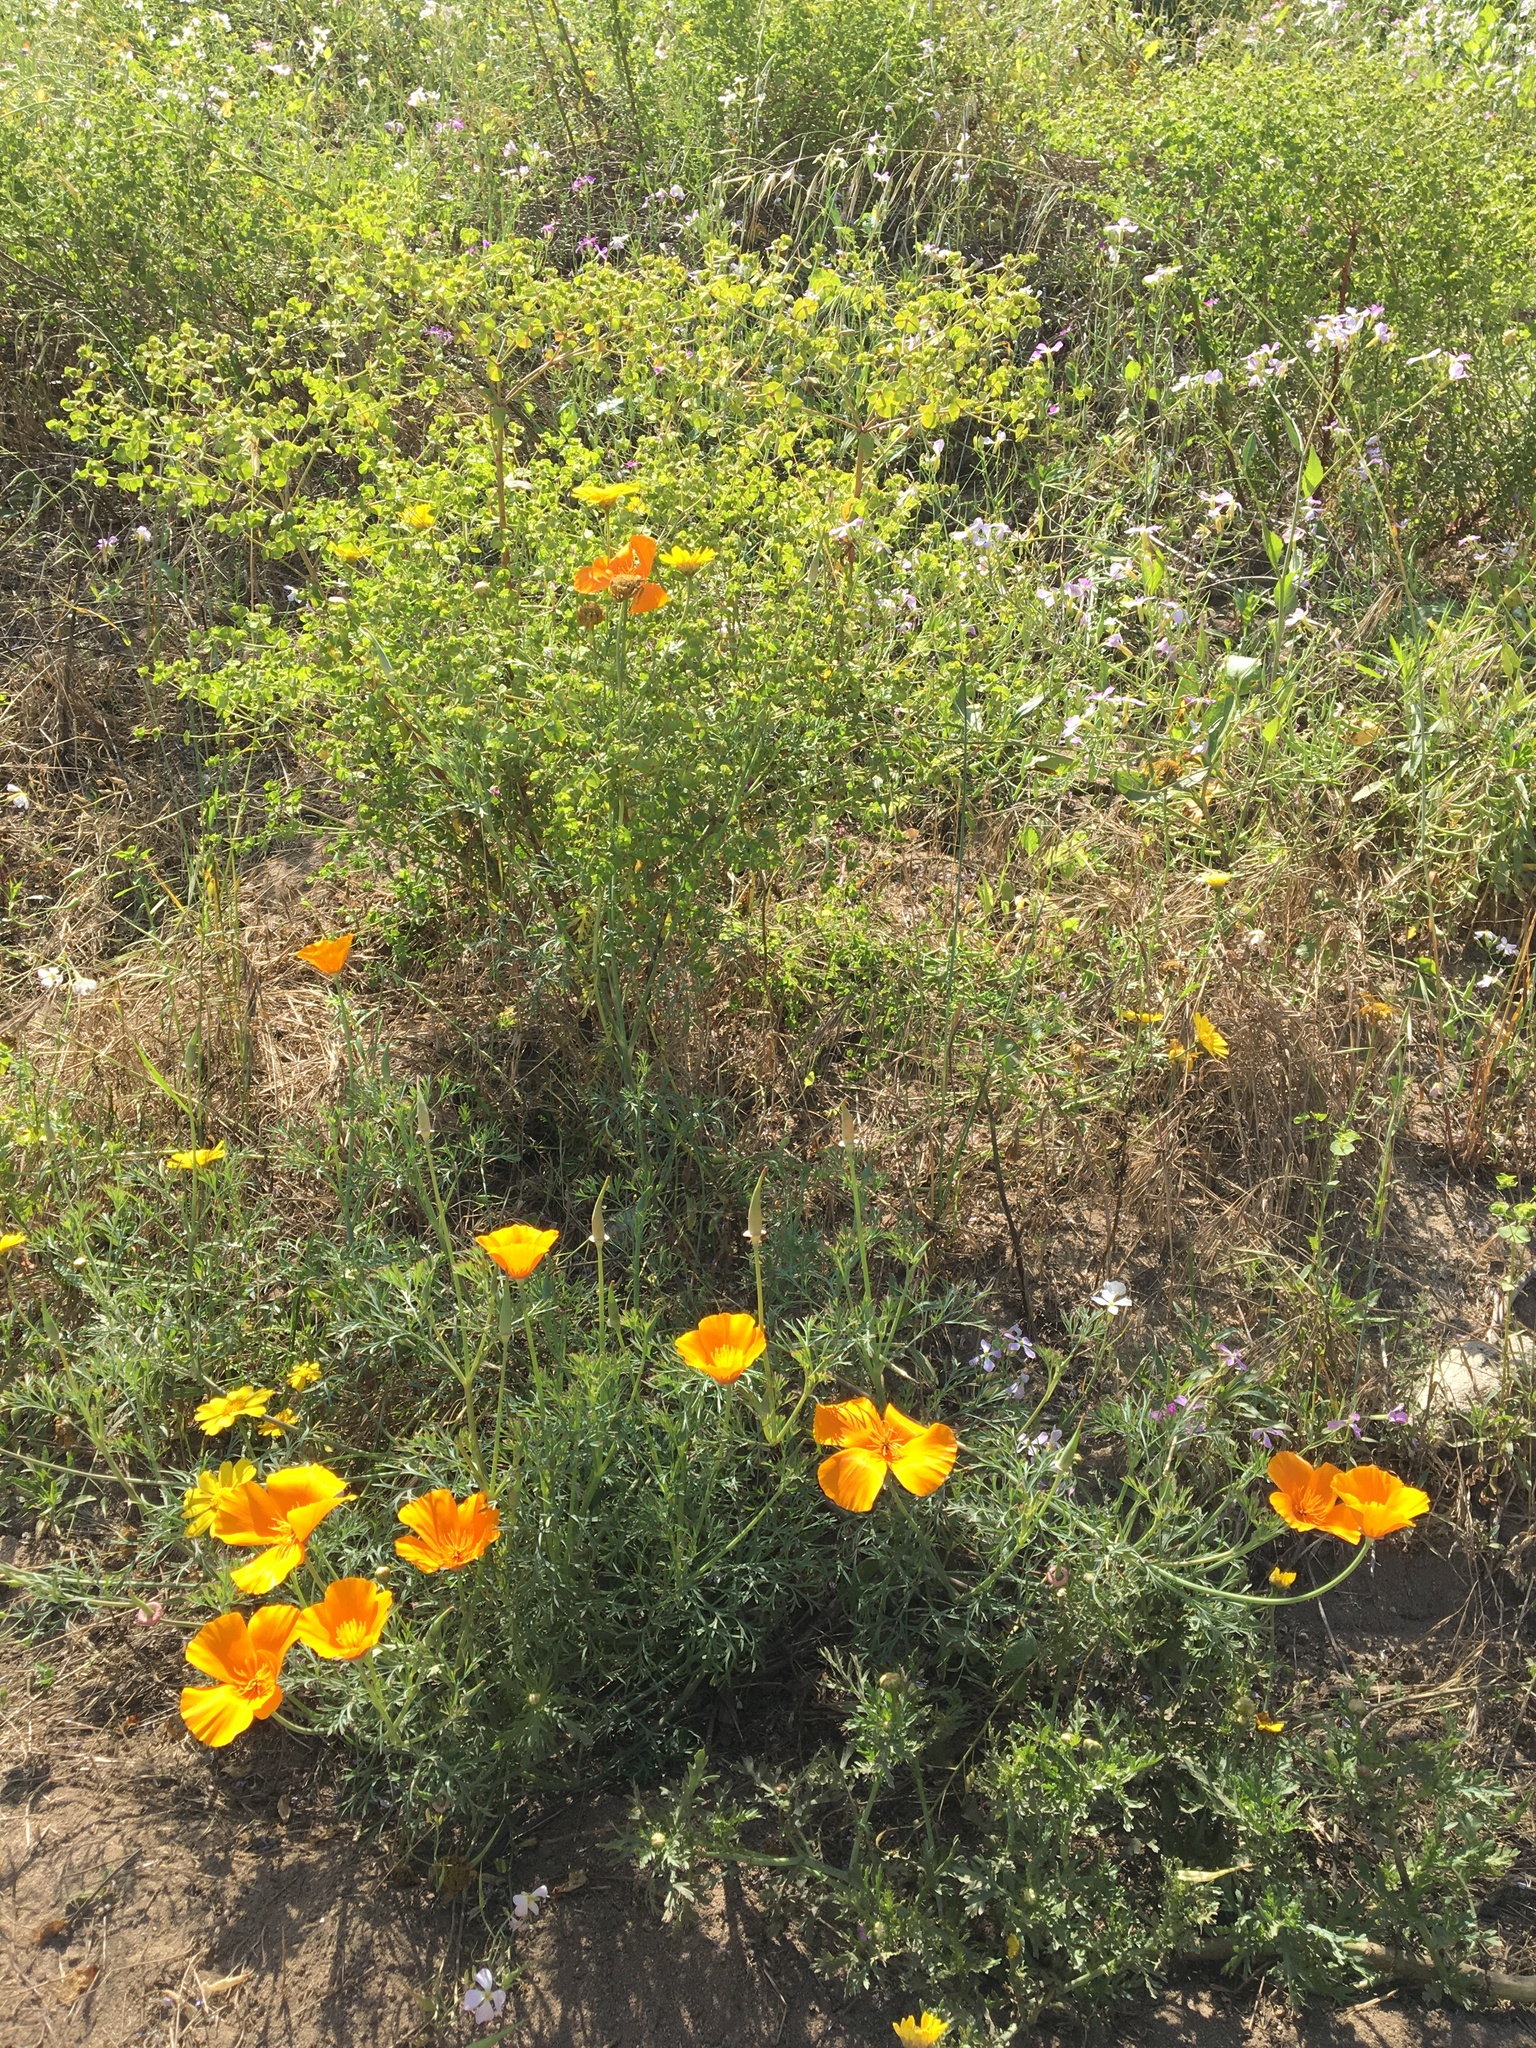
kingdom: Plantae
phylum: Tracheophyta
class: Magnoliopsida
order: Ranunculales
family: Papaveraceae
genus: Eschscholzia
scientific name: Eschscholzia californica
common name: California poppy
